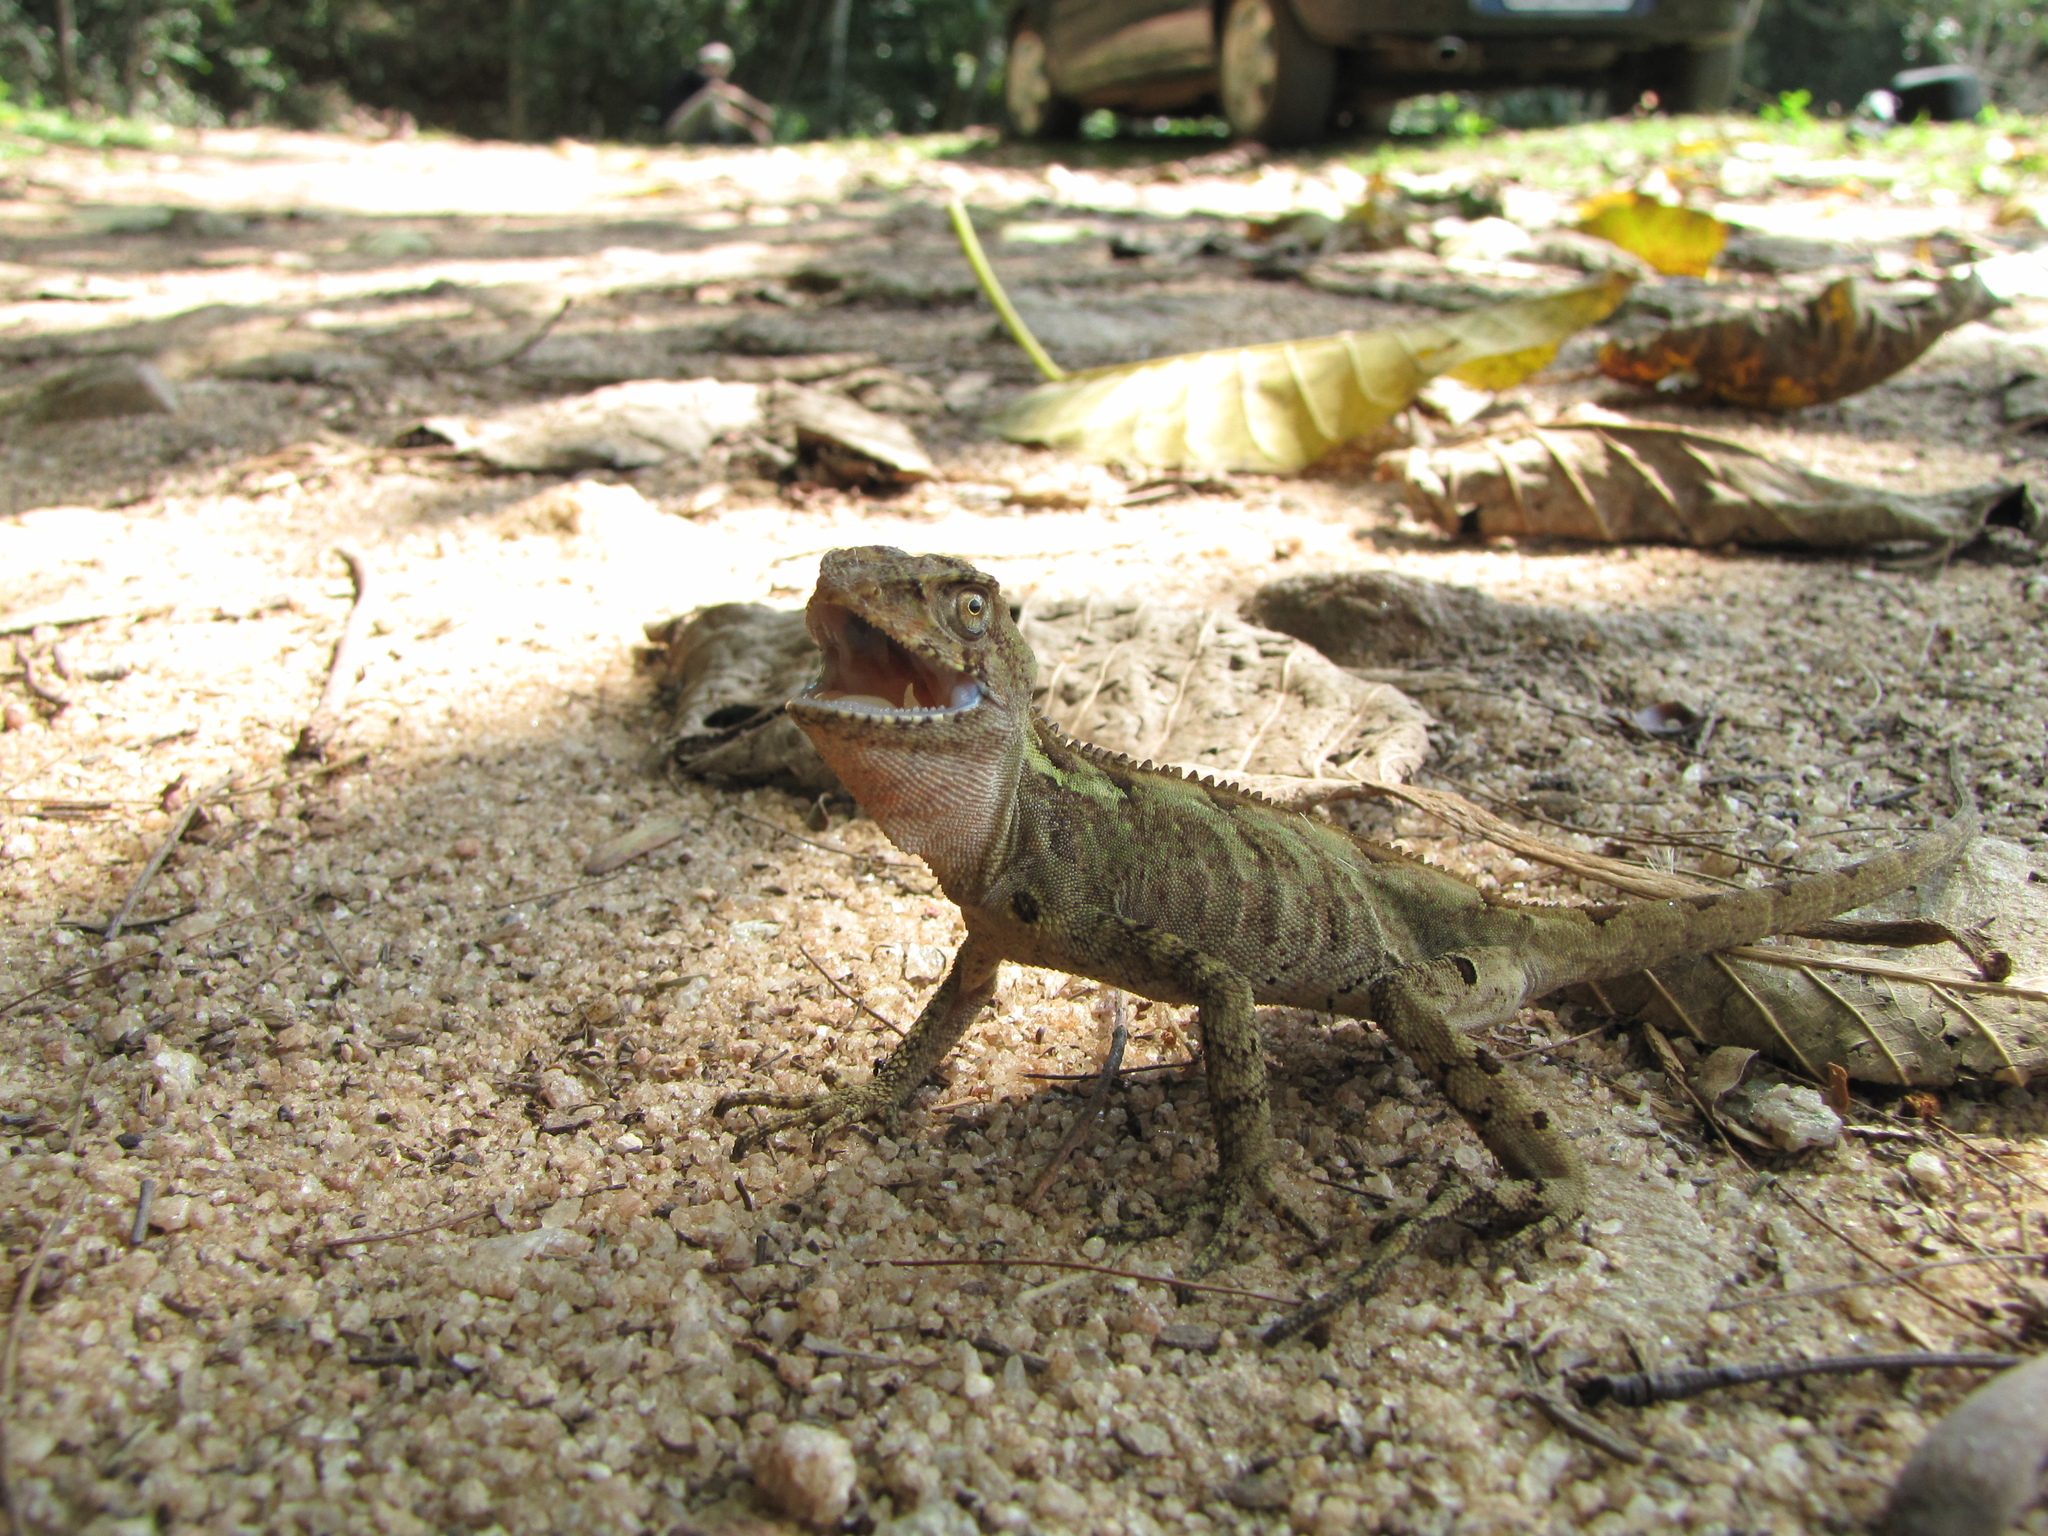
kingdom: Animalia
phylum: Chordata
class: Squamata
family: Leiosauridae
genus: Enyalius
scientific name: Enyalius boulengeri
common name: Brazilian fathead anole
